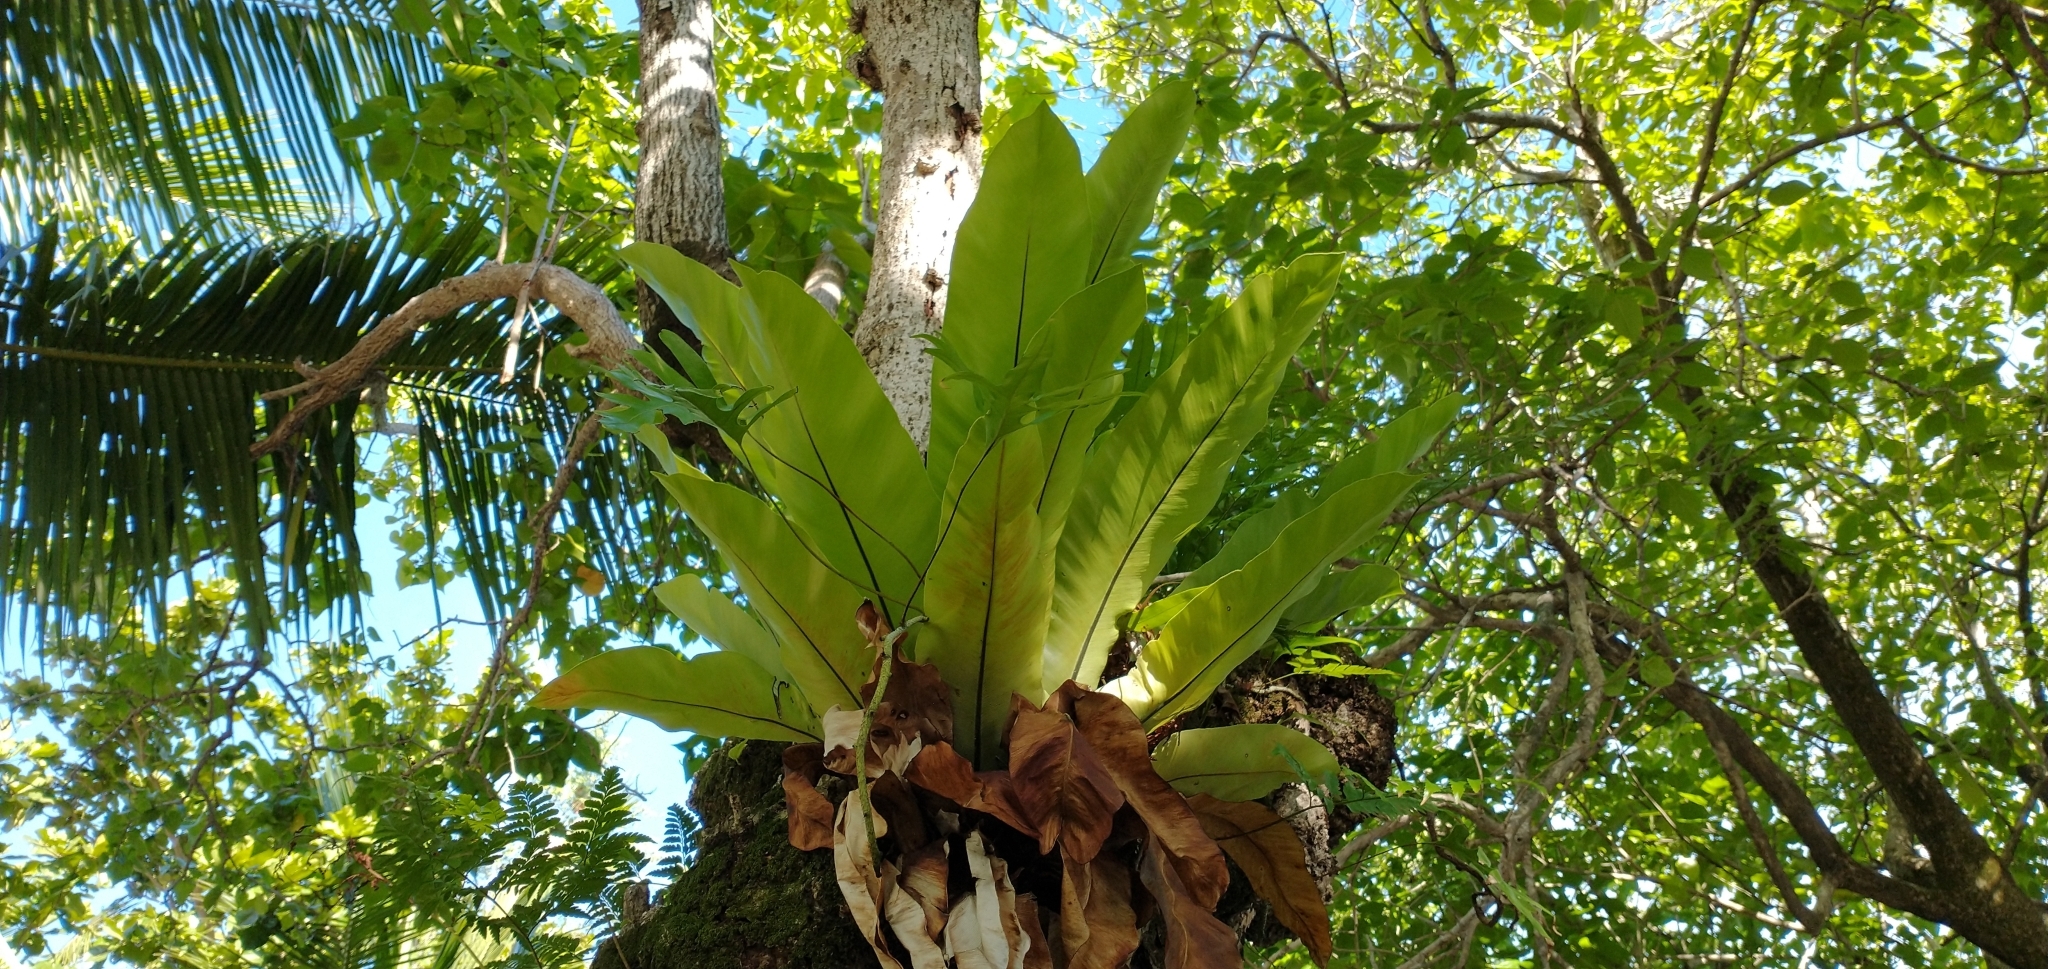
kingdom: Plantae
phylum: Tracheophyta
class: Polypodiopsida
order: Polypodiales
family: Aspleniaceae
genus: Asplenium
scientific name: Asplenium nidus
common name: Bird's-nest fern
